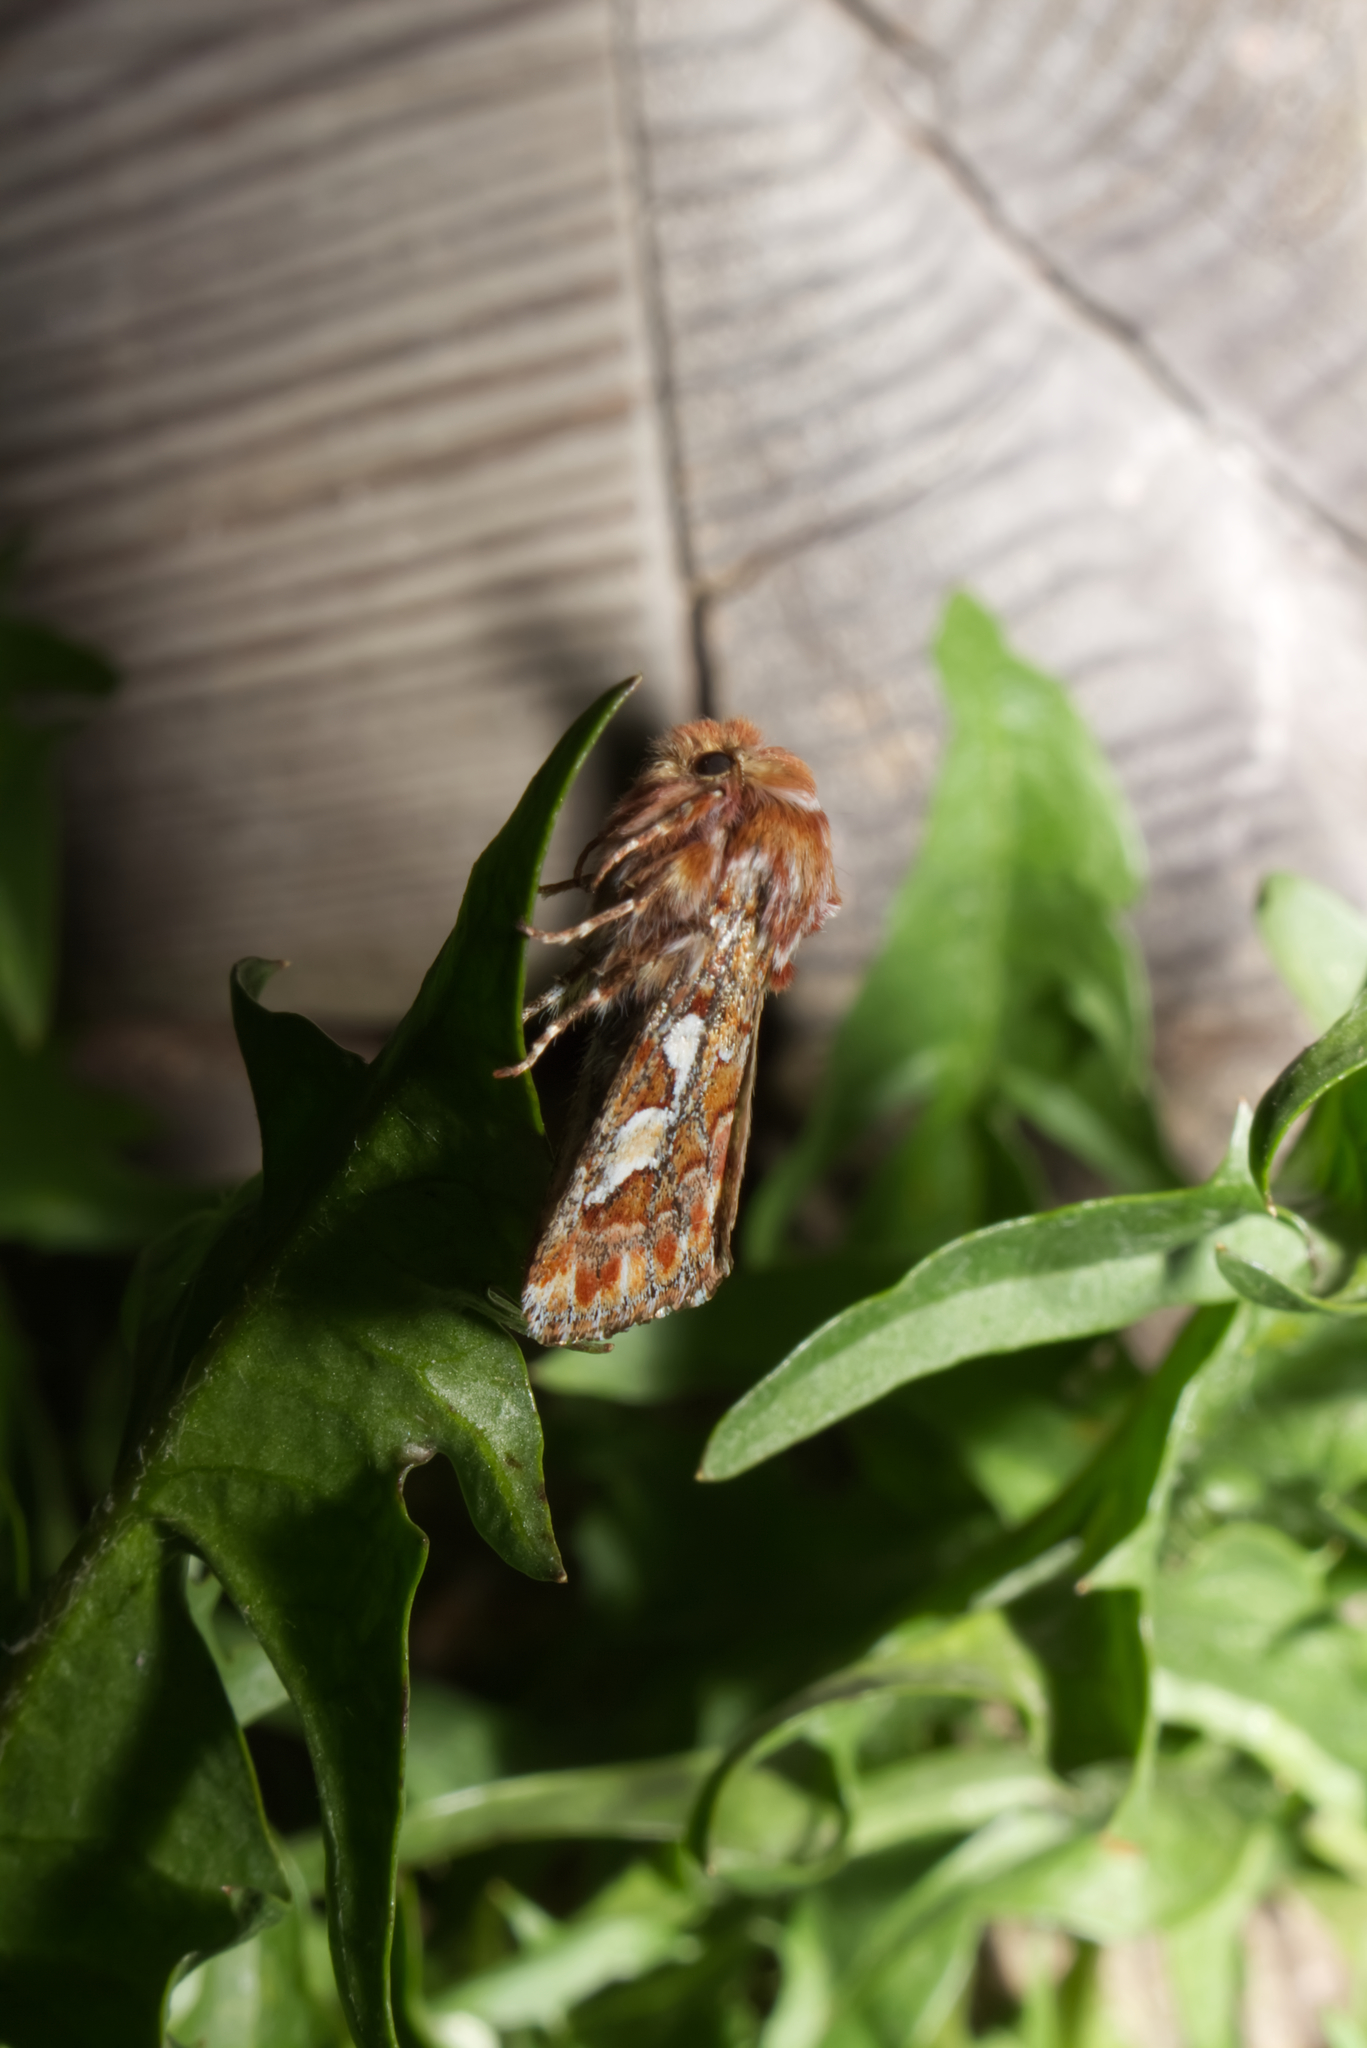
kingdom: Animalia
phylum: Arthropoda
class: Insecta
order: Lepidoptera
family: Noctuidae
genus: Panolis
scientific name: Panolis flammea
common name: Pine beauty
